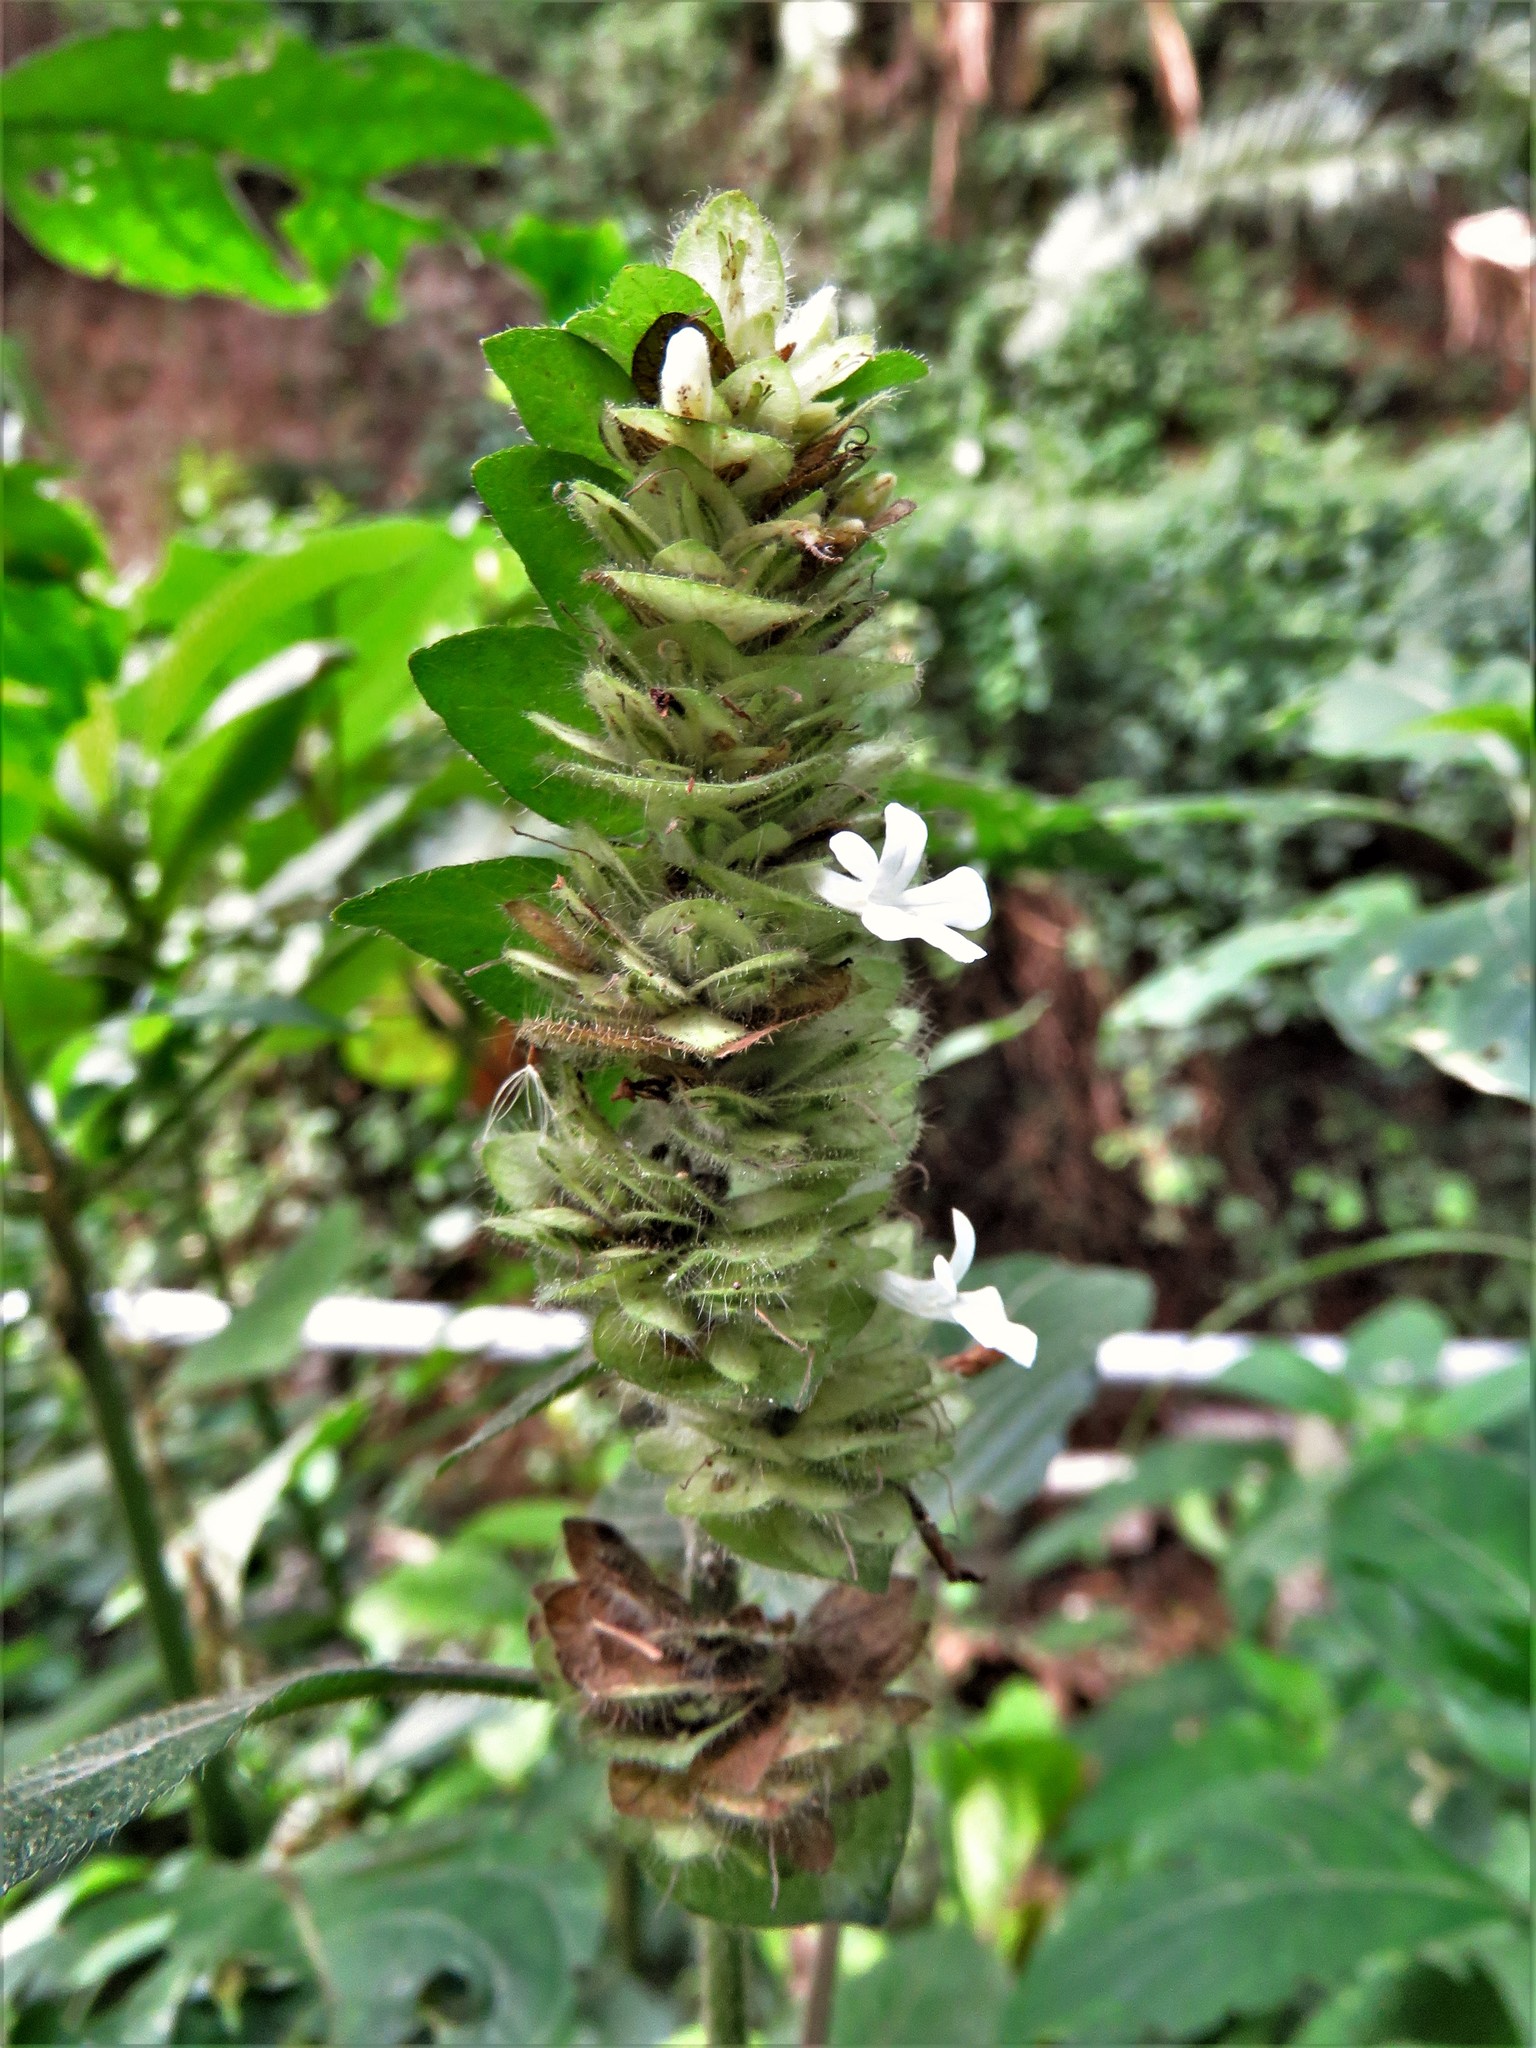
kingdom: Plantae
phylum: Tracheophyta
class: Magnoliopsida
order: Lamiales
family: Acanthaceae
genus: Phaulopsis
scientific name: Phaulopsis imbricata
